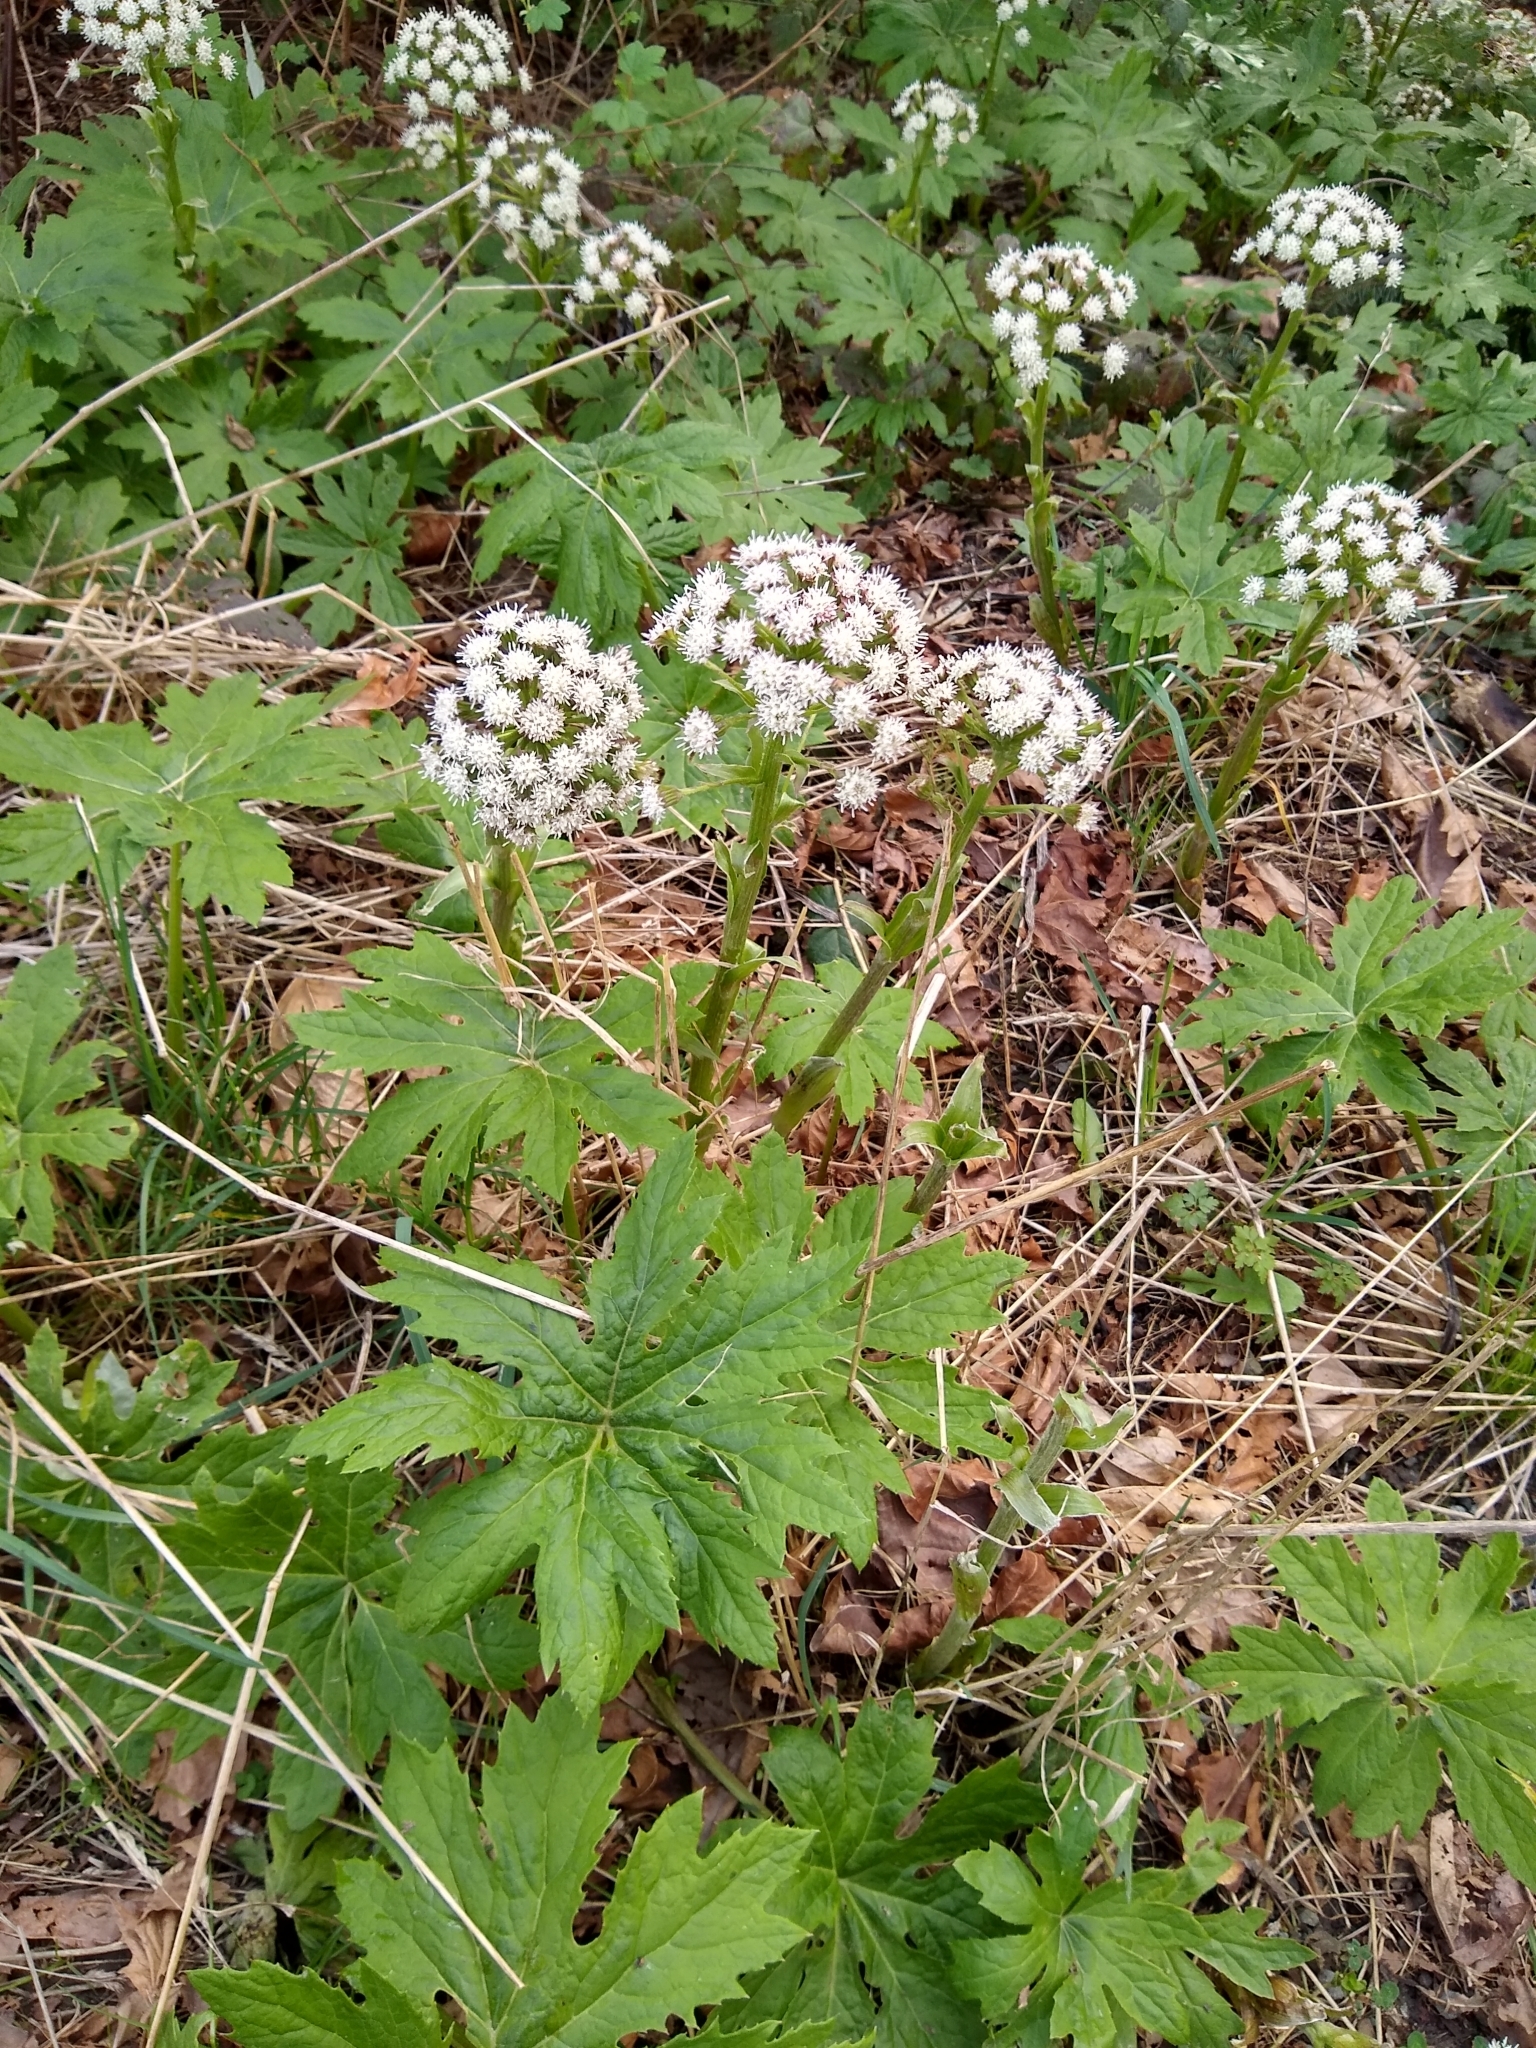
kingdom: Plantae
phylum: Tracheophyta
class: Magnoliopsida
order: Asterales
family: Asteraceae
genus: Petasites
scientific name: Petasites frigidus
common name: Arctic butterbur
